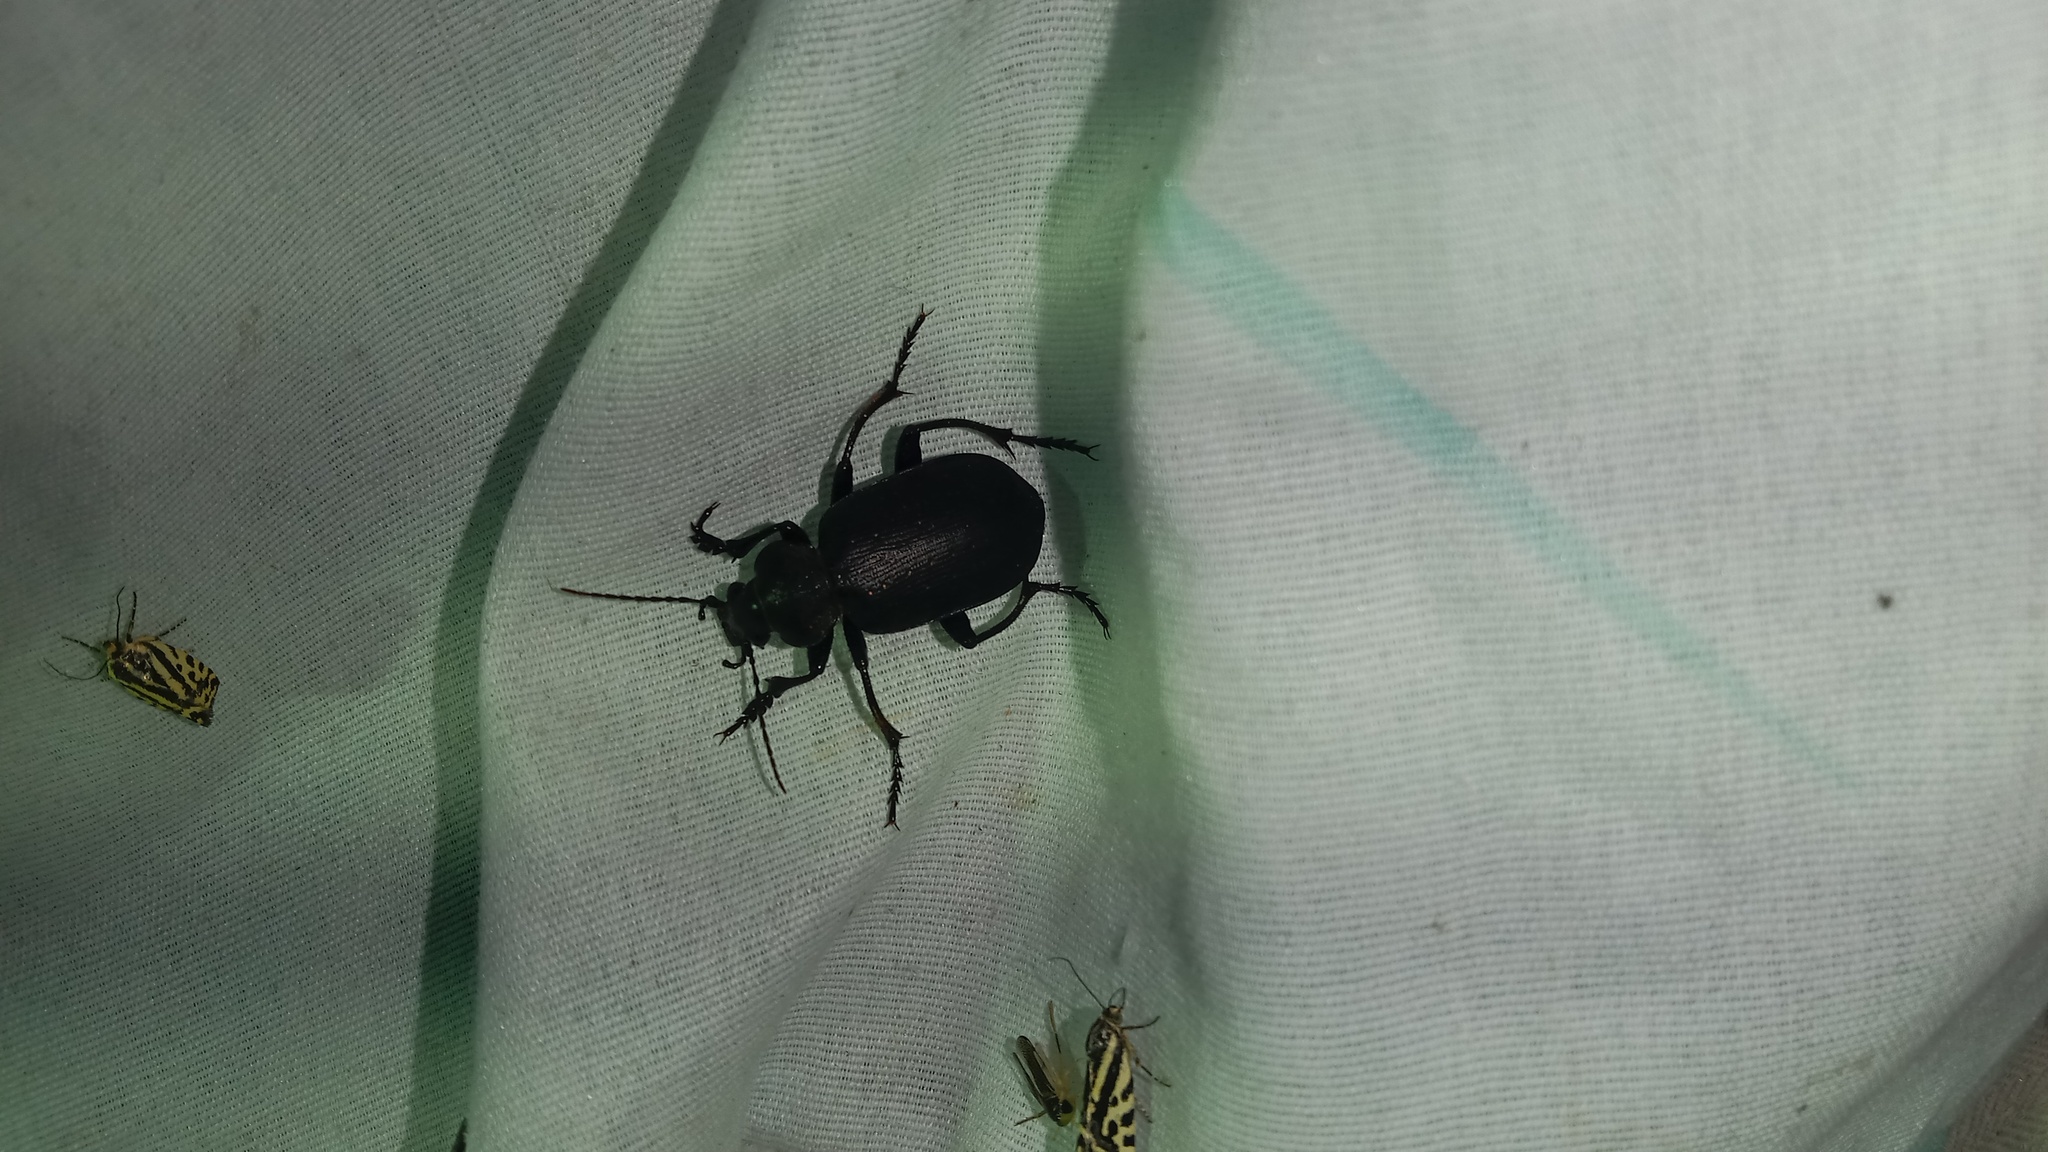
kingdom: Animalia
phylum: Arthropoda
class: Insecta
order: Coleoptera
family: Carabidae
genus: Calosoma
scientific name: Calosoma maderae
